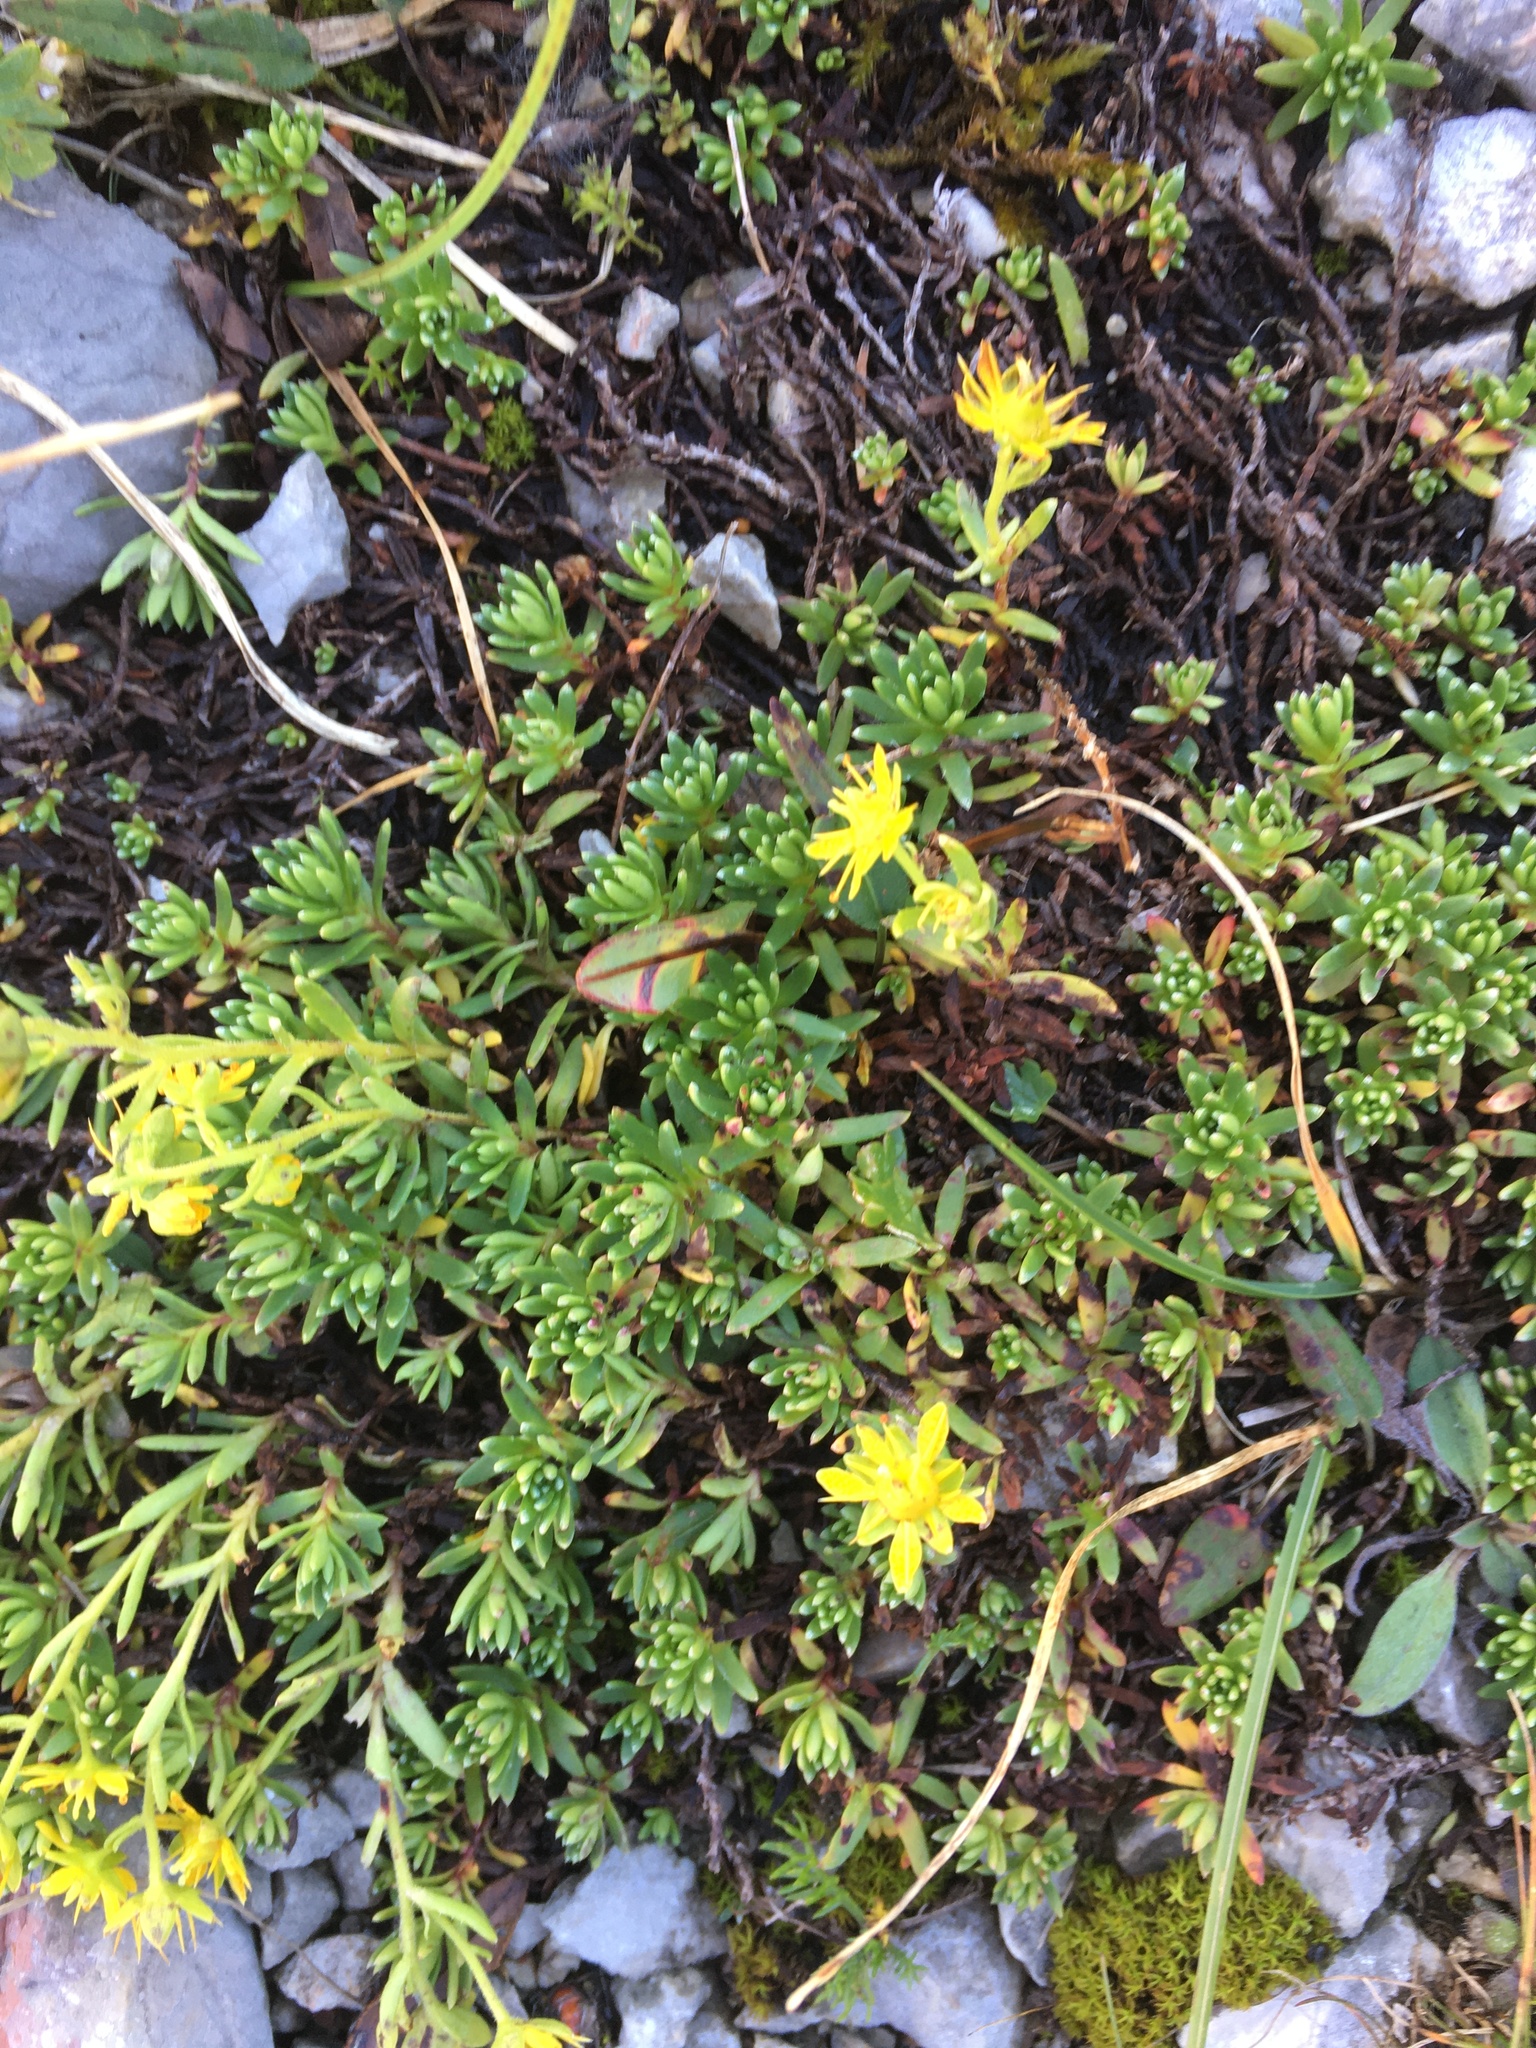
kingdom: Plantae
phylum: Tracheophyta
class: Magnoliopsida
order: Saxifragales
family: Saxifragaceae
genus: Saxifraga
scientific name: Saxifraga aizoides
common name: Yellow mountain saxifrage
